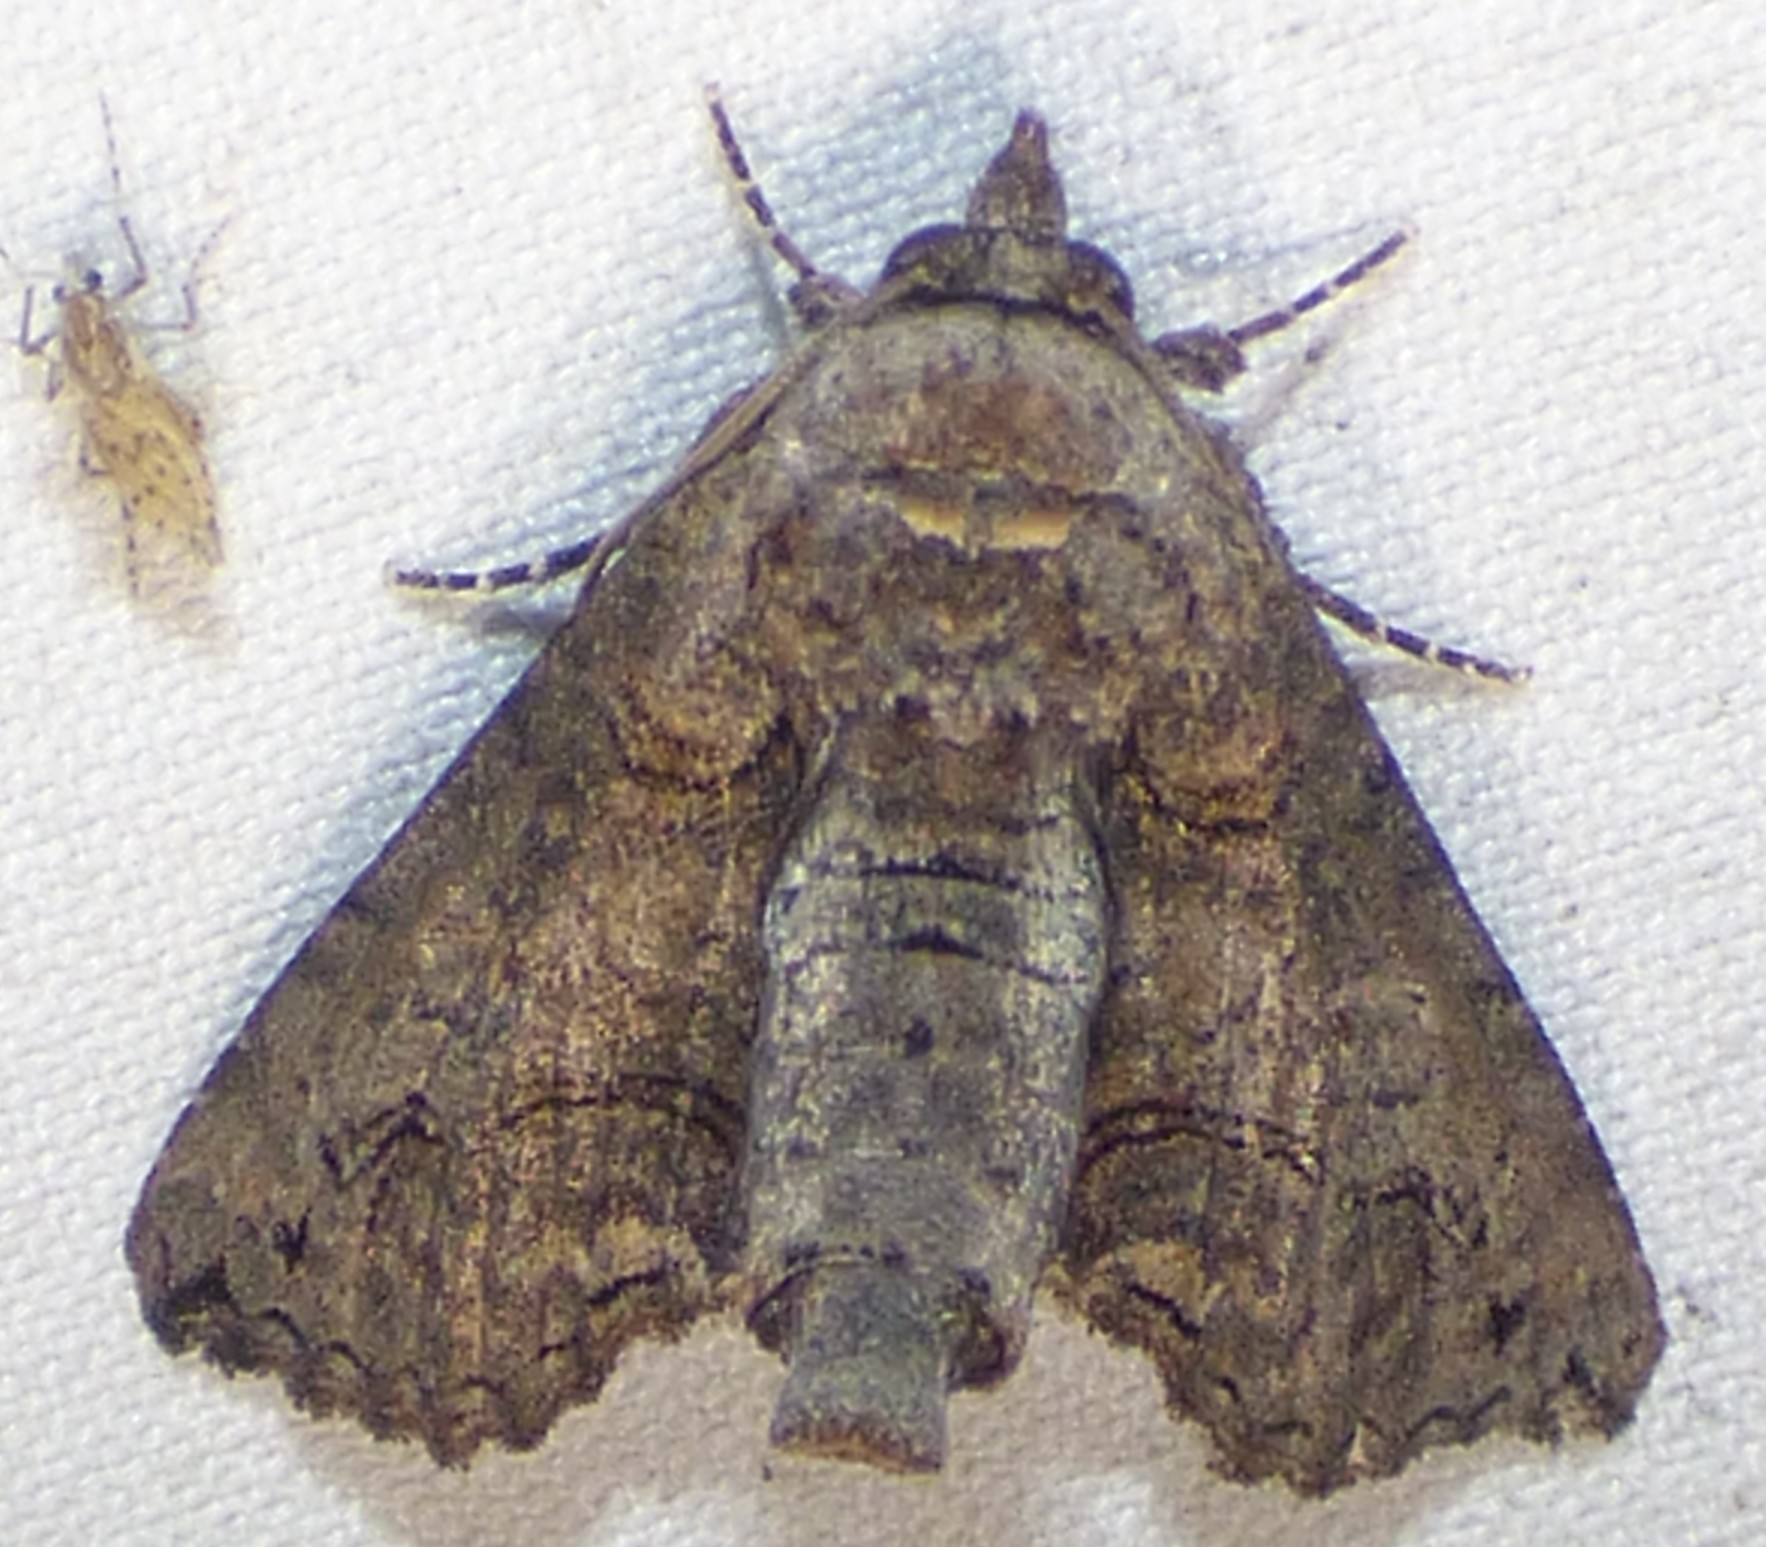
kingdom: Animalia
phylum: Arthropoda
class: Insecta
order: Lepidoptera
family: Euteliidae
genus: Paectes
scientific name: Paectes abrostoloides
